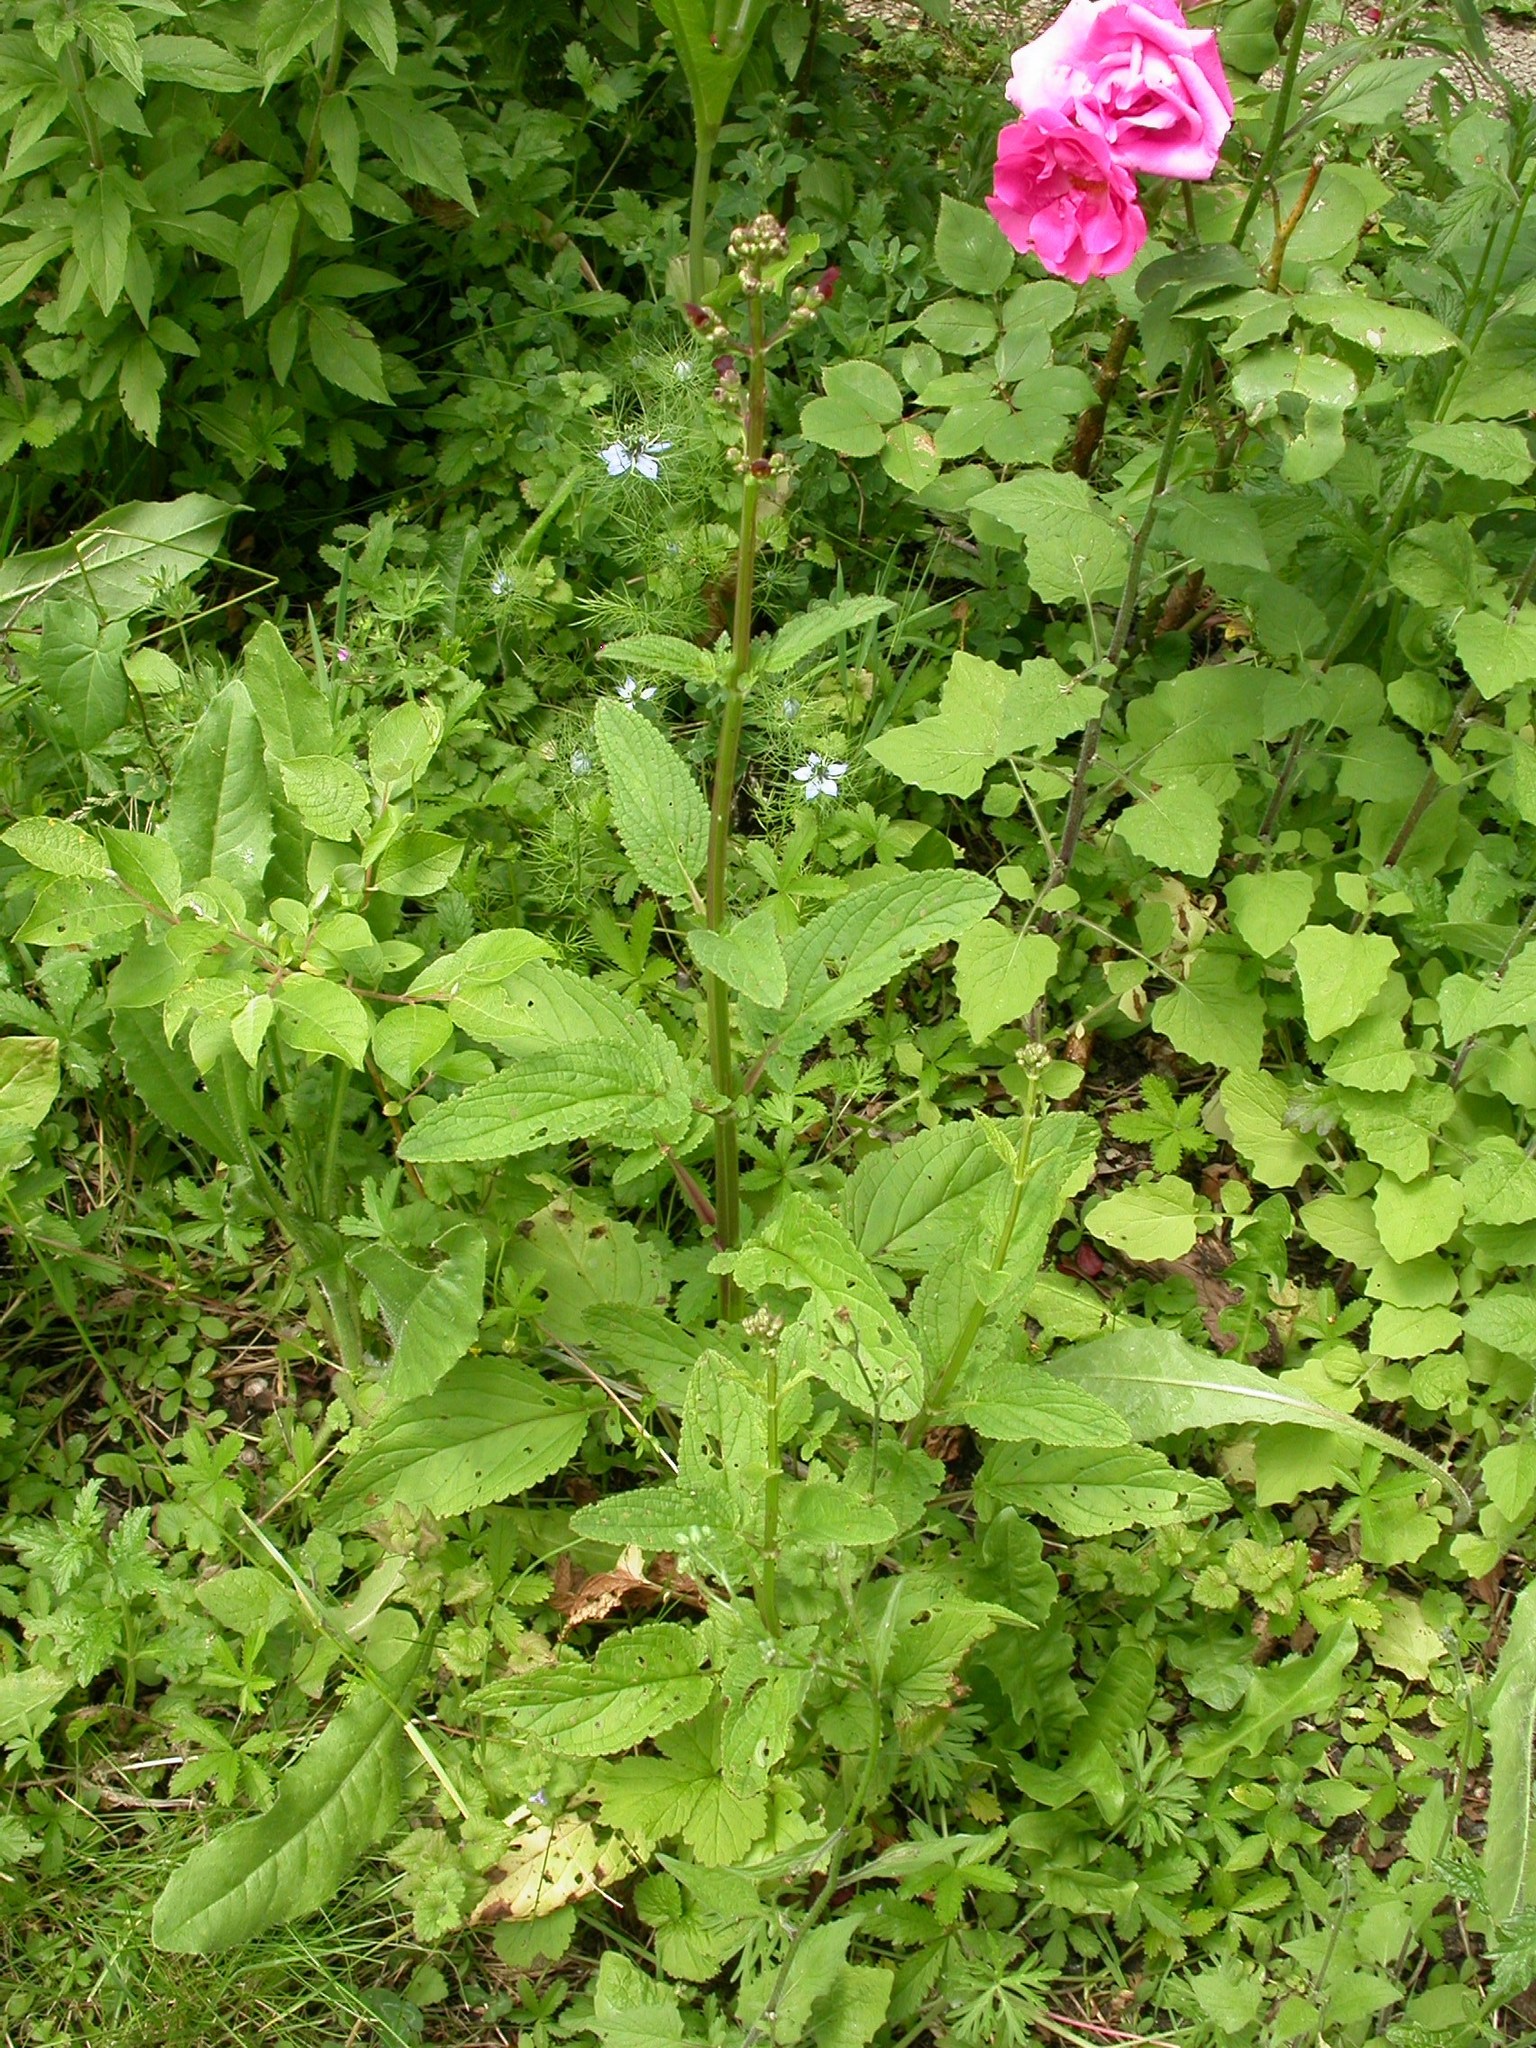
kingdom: Plantae
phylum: Tracheophyta
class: Magnoliopsida
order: Lamiales
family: Scrophulariaceae
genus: Scrophularia
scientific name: Scrophularia auriculata
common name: Water betony
